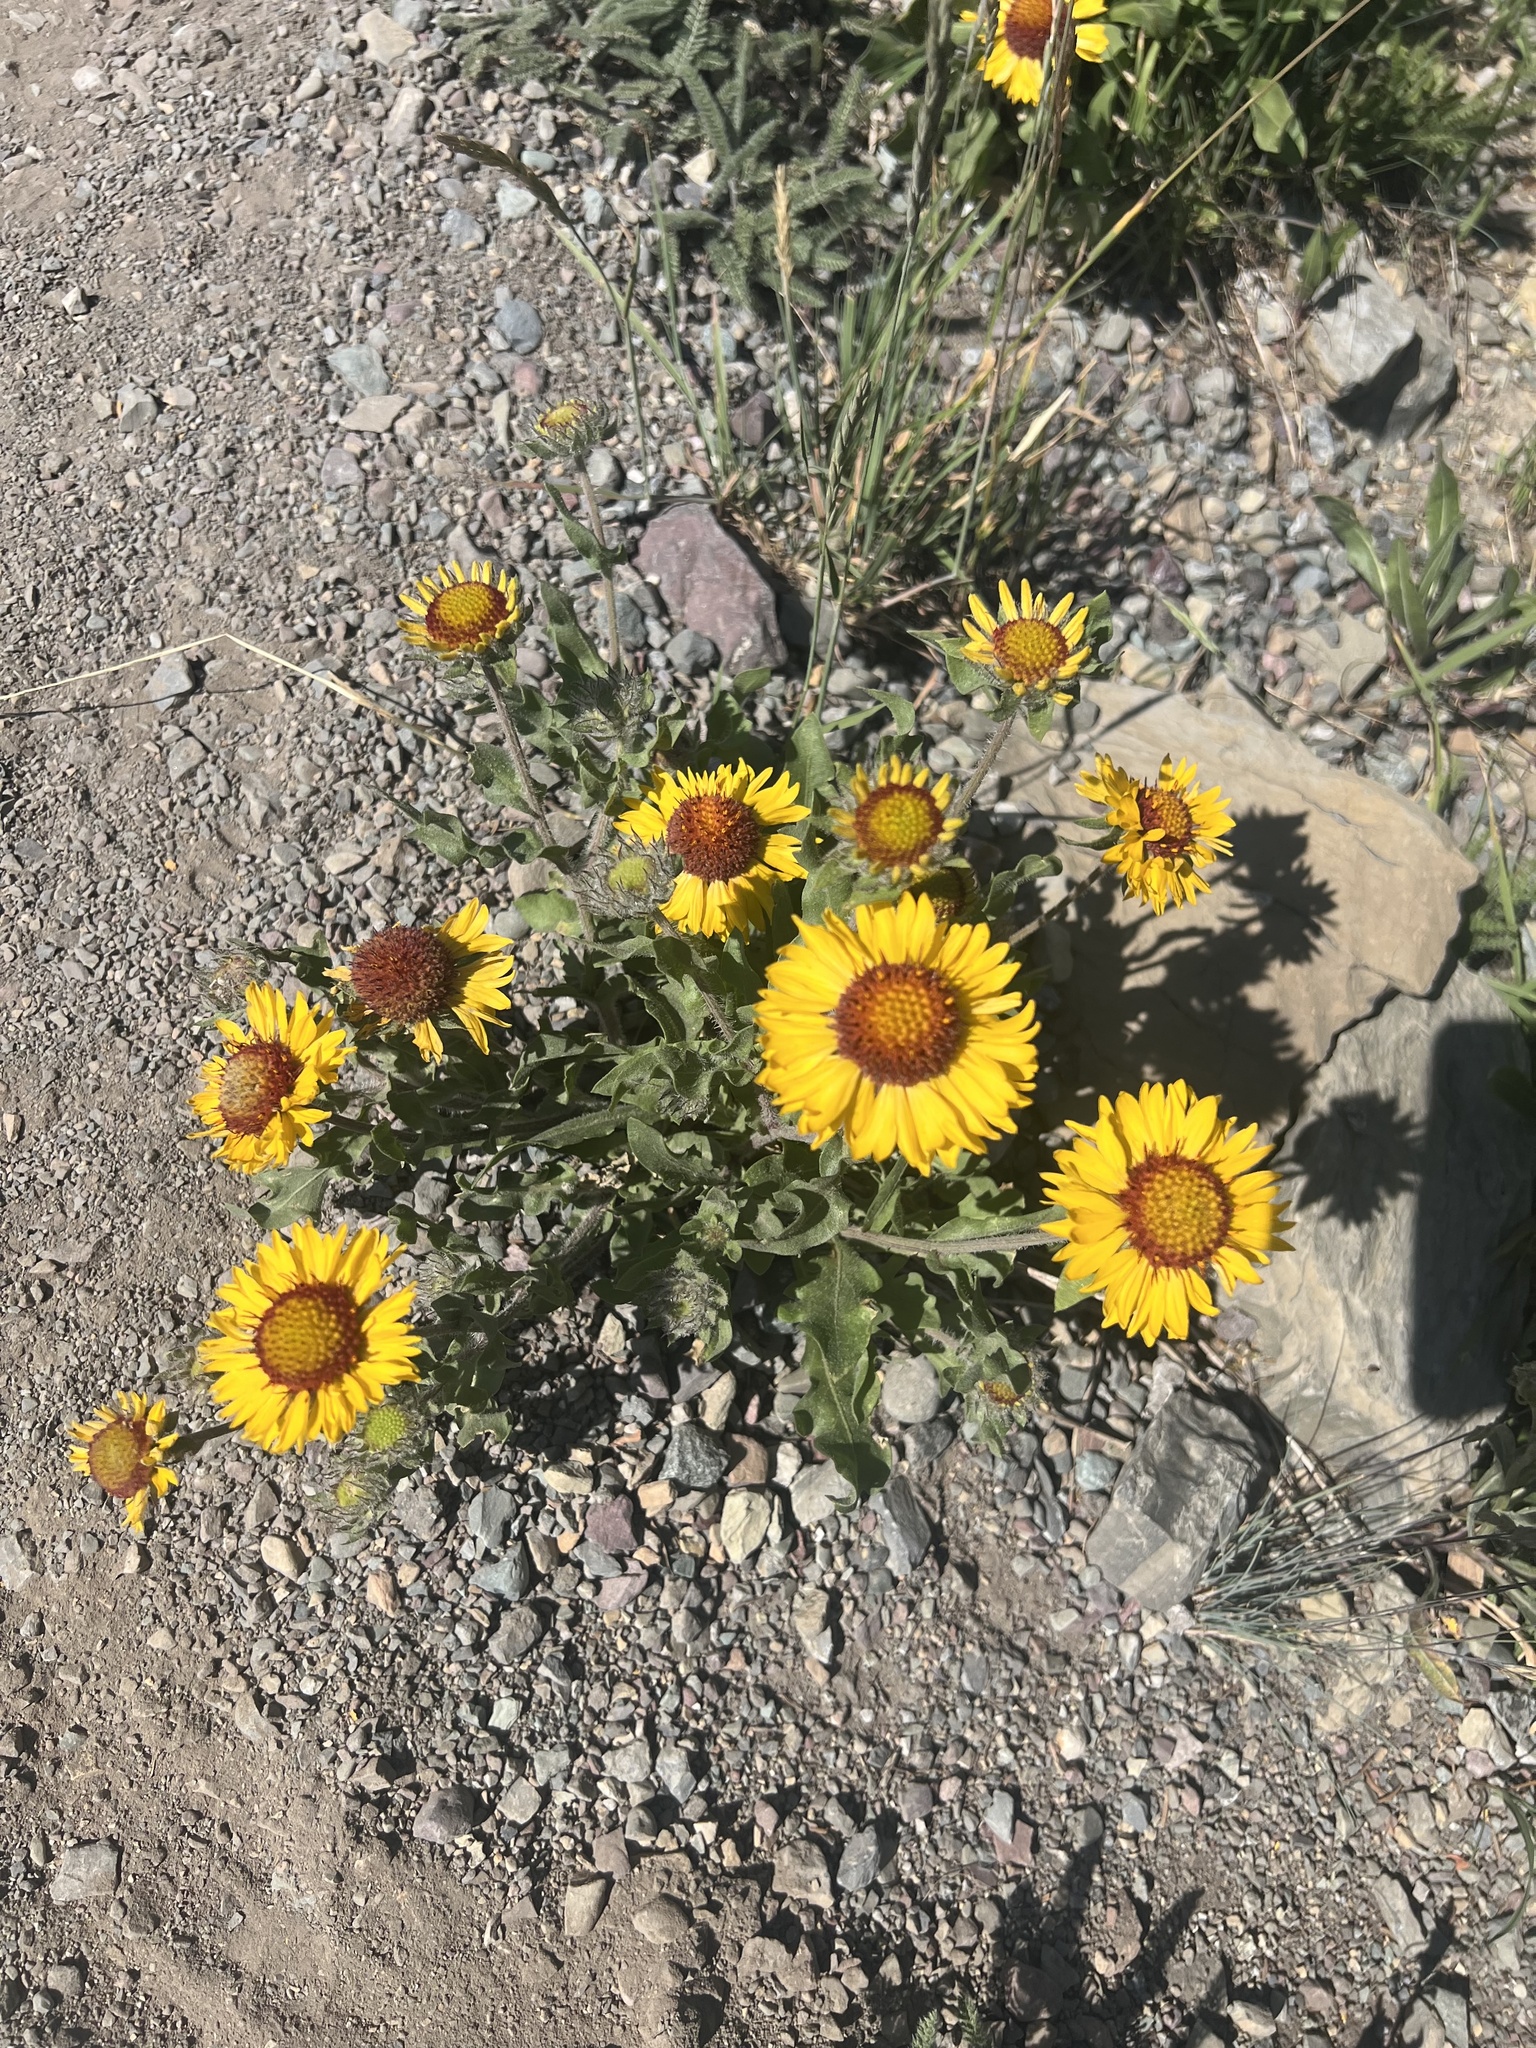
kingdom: Plantae
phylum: Tracheophyta
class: Magnoliopsida
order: Asterales
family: Asteraceae
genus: Gaillardia
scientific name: Gaillardia aristata
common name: Blanket-flower
